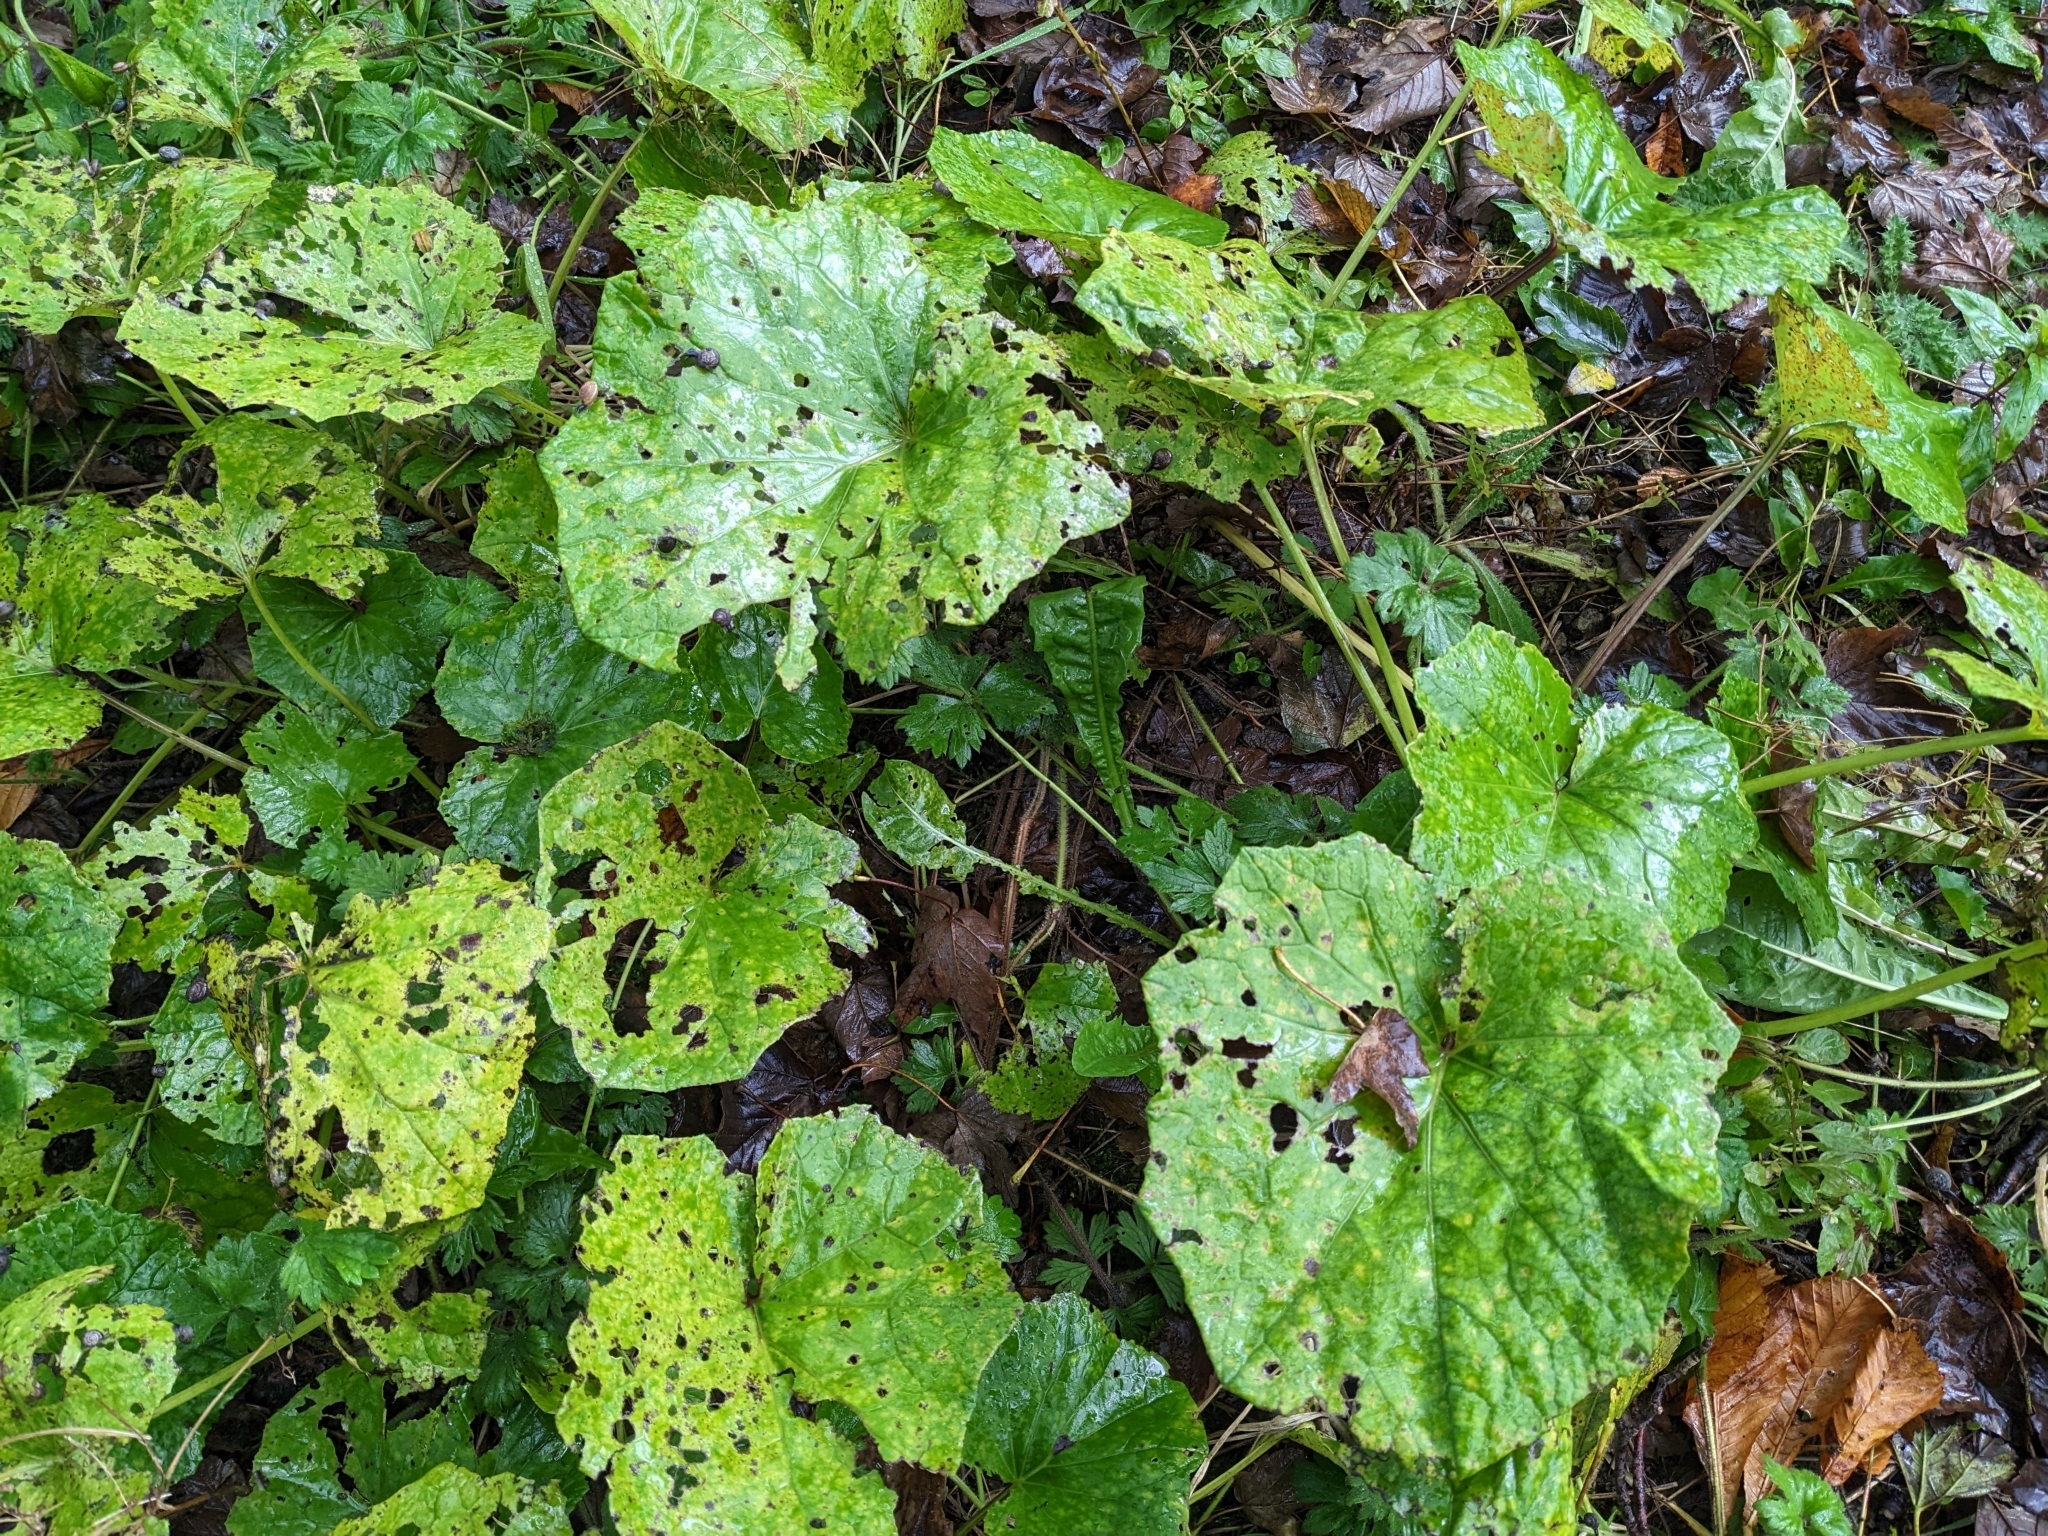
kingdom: Plantae
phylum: Tracheophyta
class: Magnoliopsida
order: Asterales
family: Asteraceae
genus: Tussilago
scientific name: Tussilago farfara
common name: Coltsfoot
